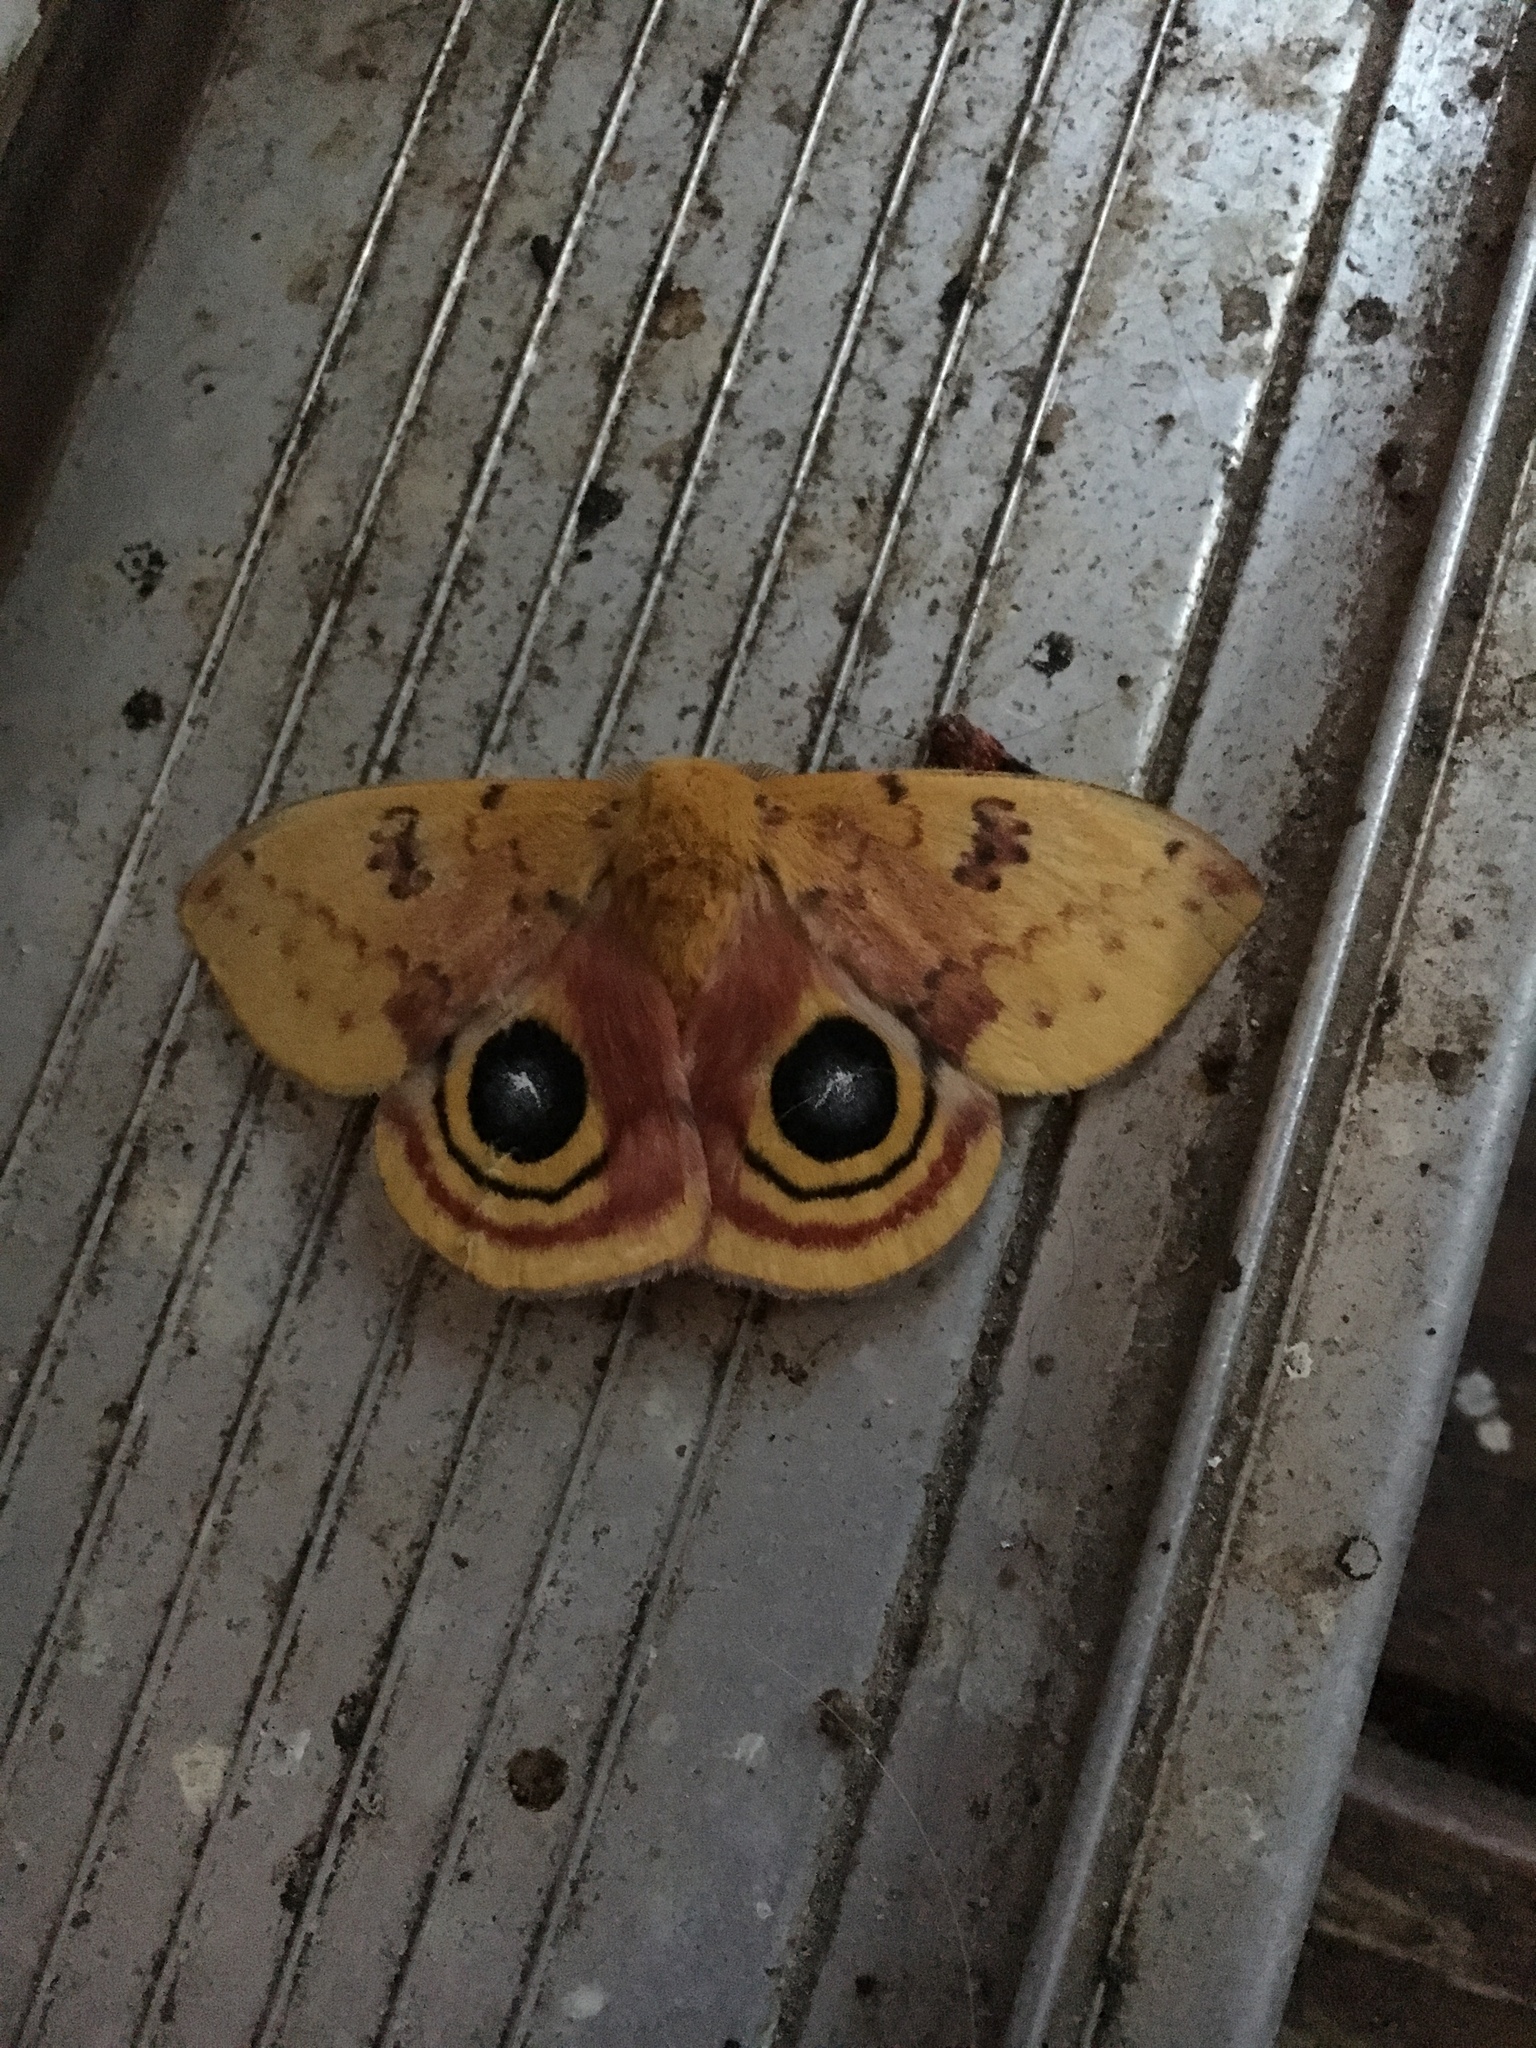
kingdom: Animalia
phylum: Arthropoda
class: Insecta
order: Lepidoptera
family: Saturniidae
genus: Automeris
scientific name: Automeris io
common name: Io moth
